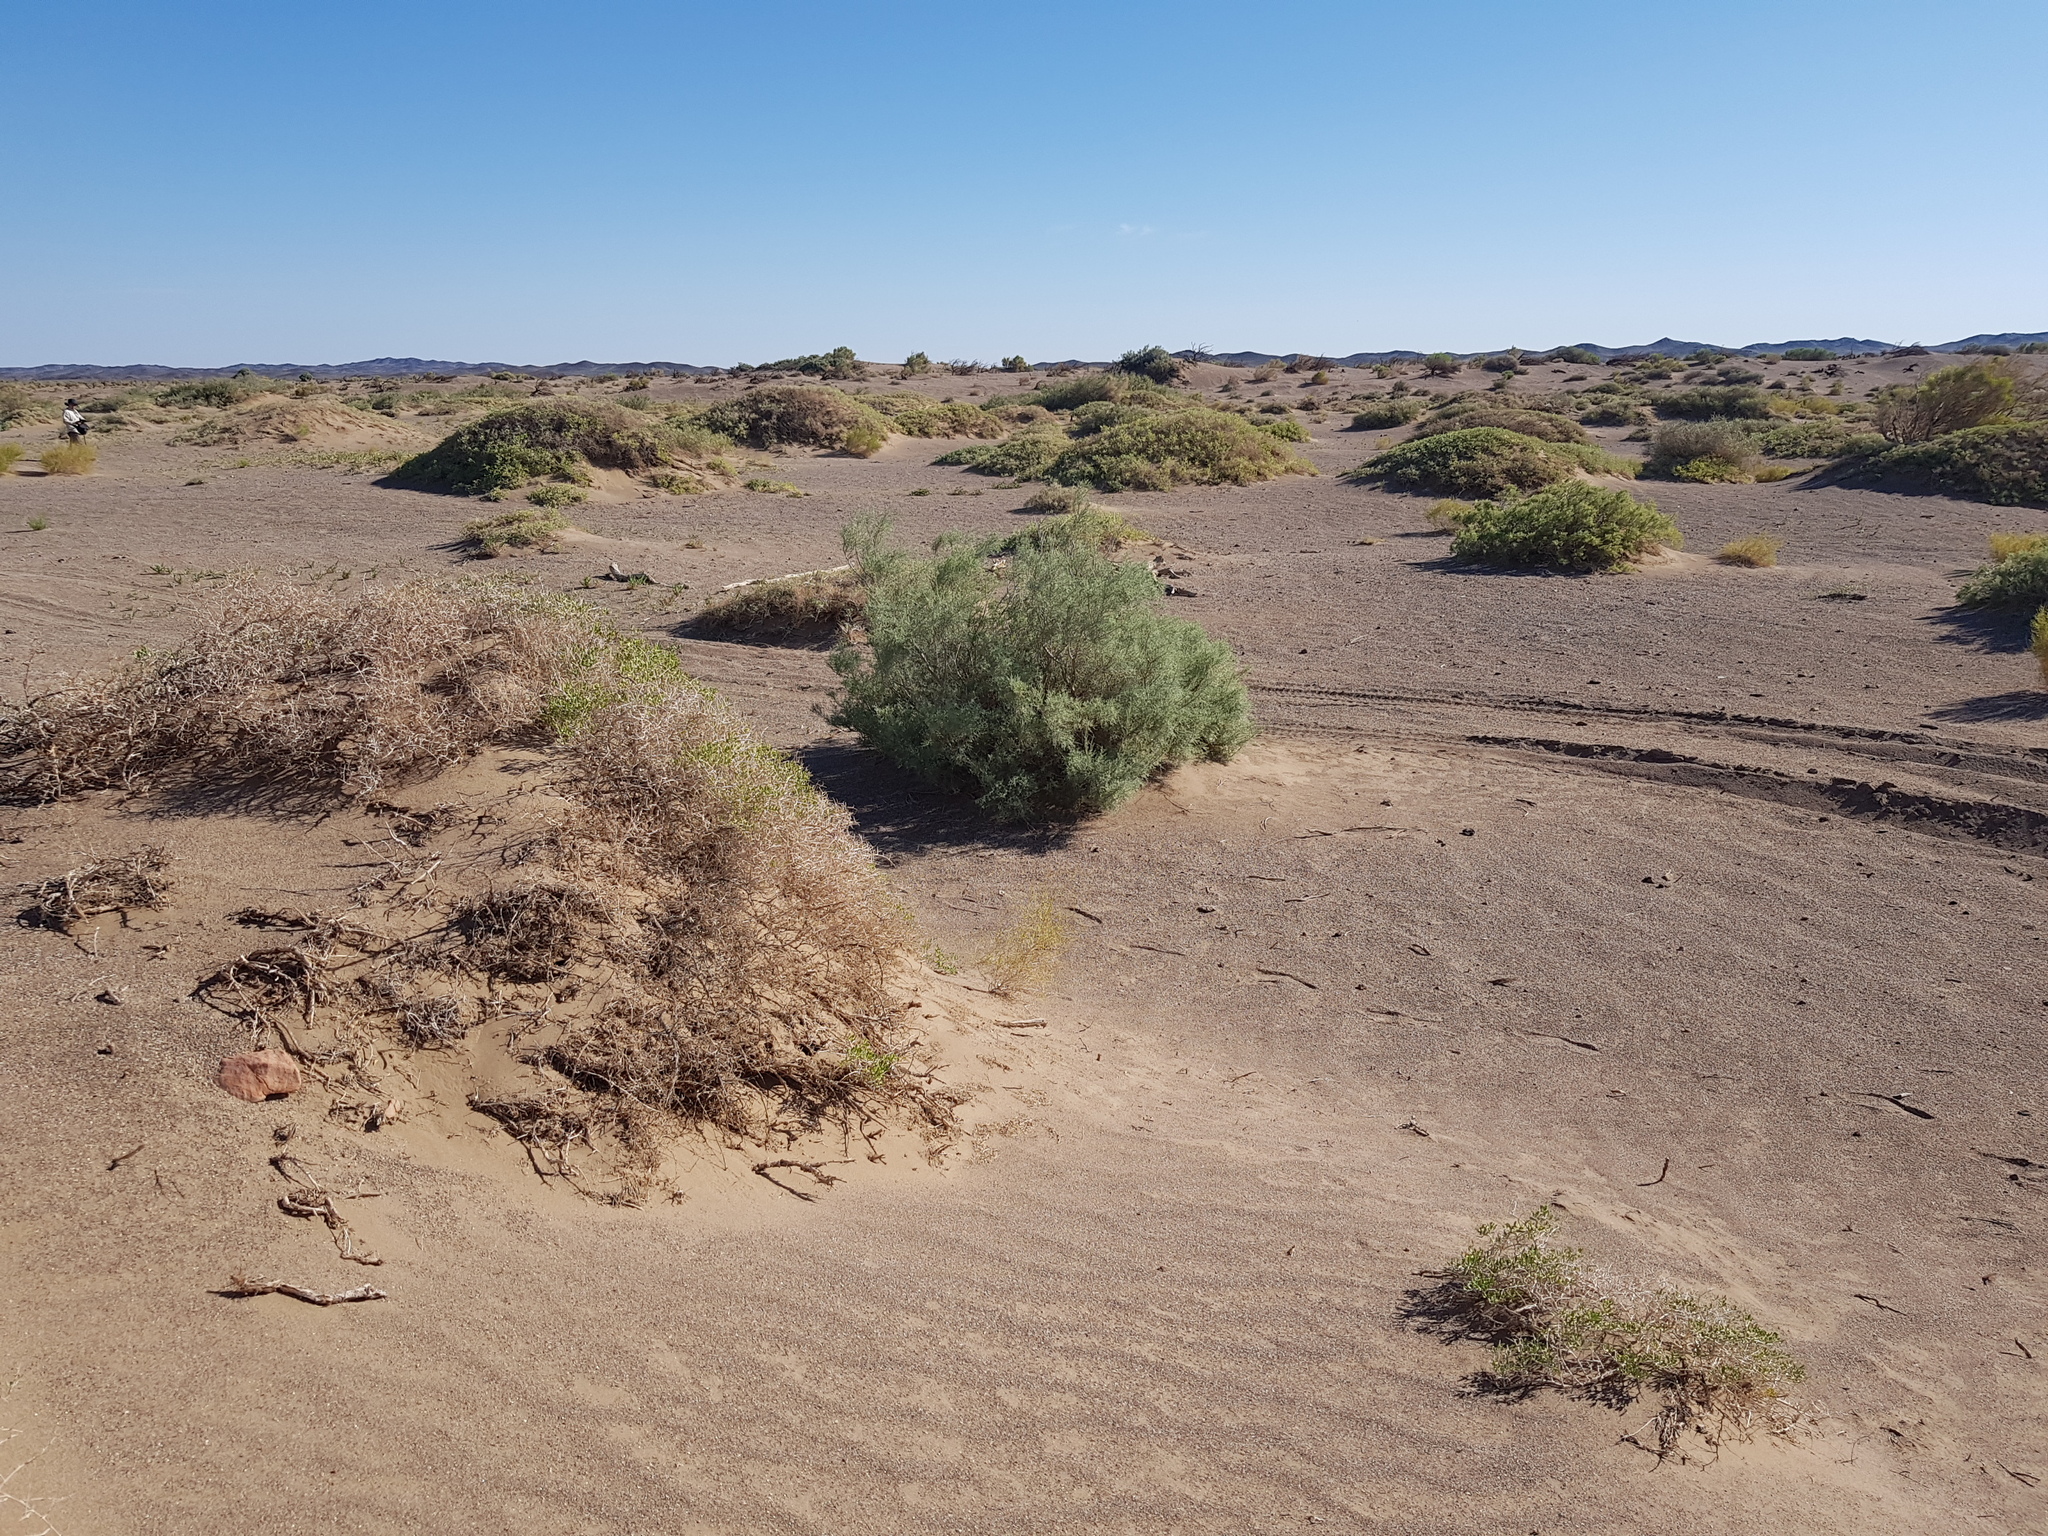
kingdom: Plantae
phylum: Tracheophyta
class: Magnoliopsida
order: Sapindales
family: Nitrariaceae
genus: Nitraria
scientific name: Nitraria sibirica
